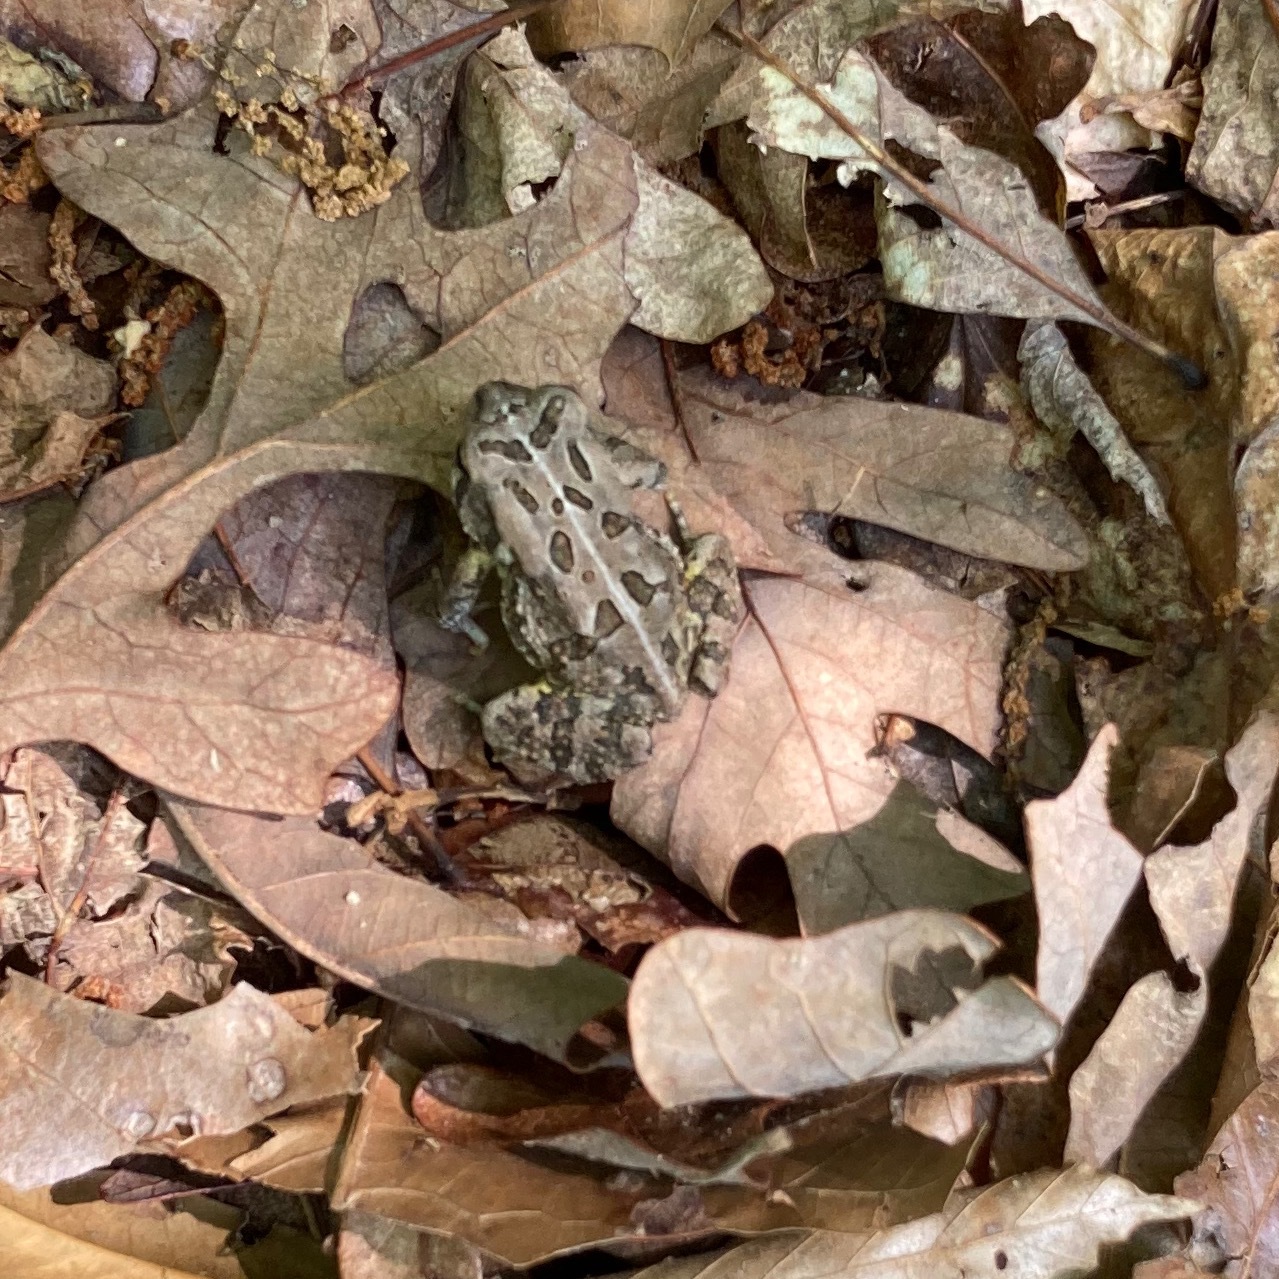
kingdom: Animalia
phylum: Chordata
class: Amphibia
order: Anura
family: Bufonidae
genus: Anaxyrus
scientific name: Anaxyrus fowleri
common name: Fowler's toad
